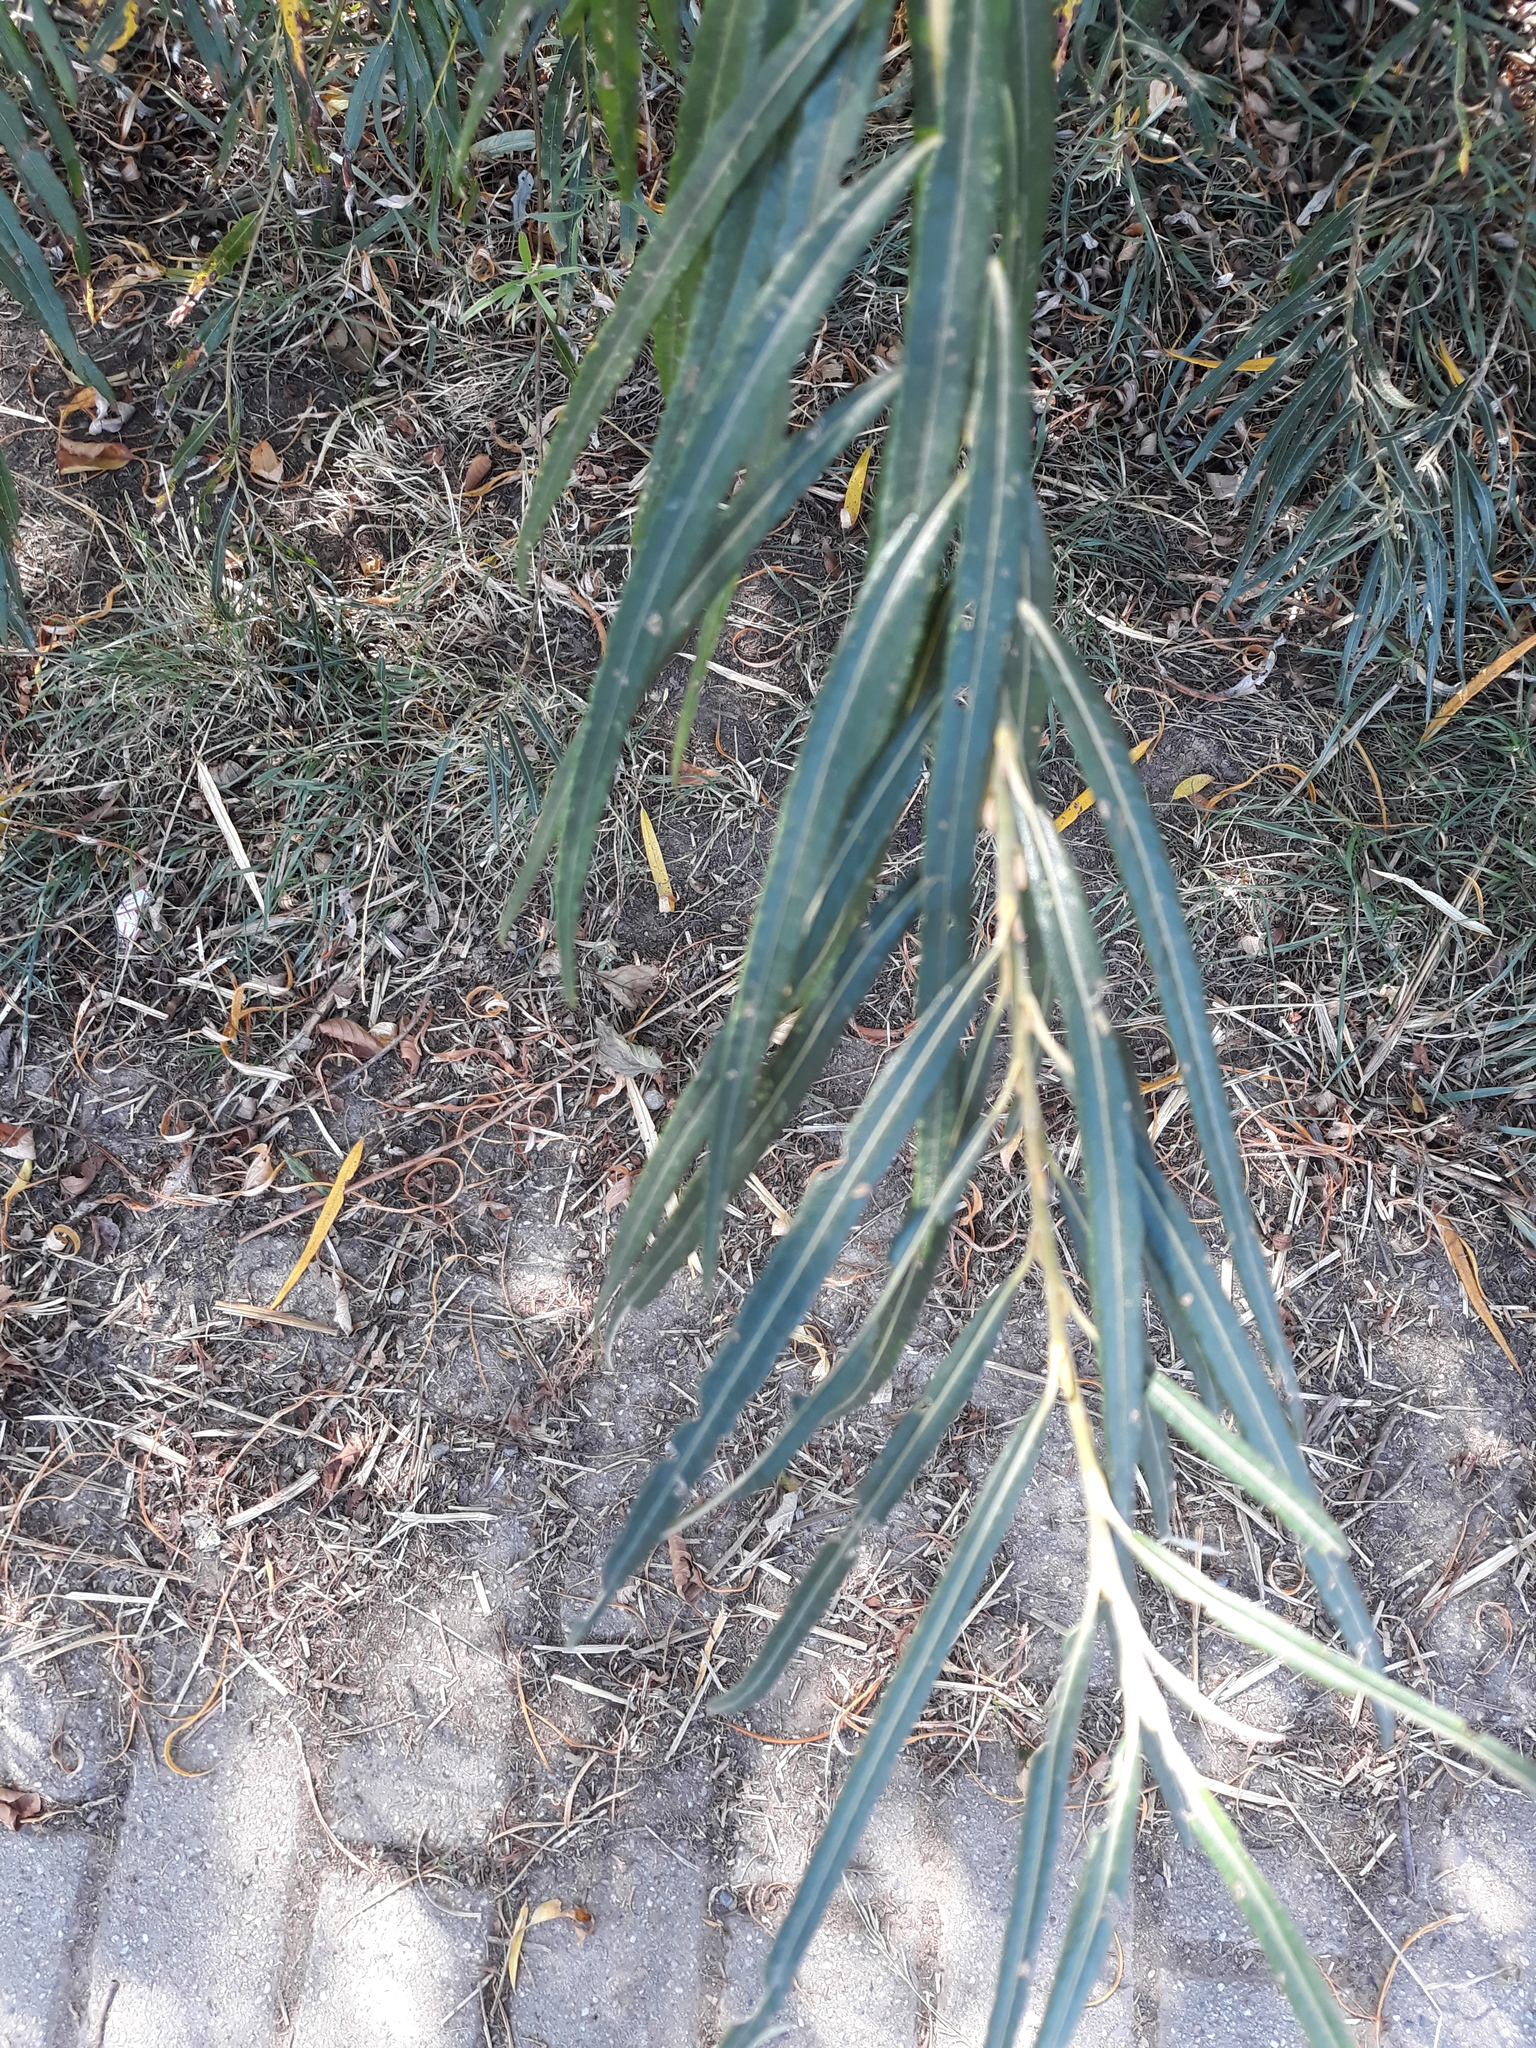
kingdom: Plantae
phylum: Tracheophyta
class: Magnoliopsida
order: Malpighiales
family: Salicaceae
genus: Salix
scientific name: Salix eleagnos
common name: Elaeagnus willow
